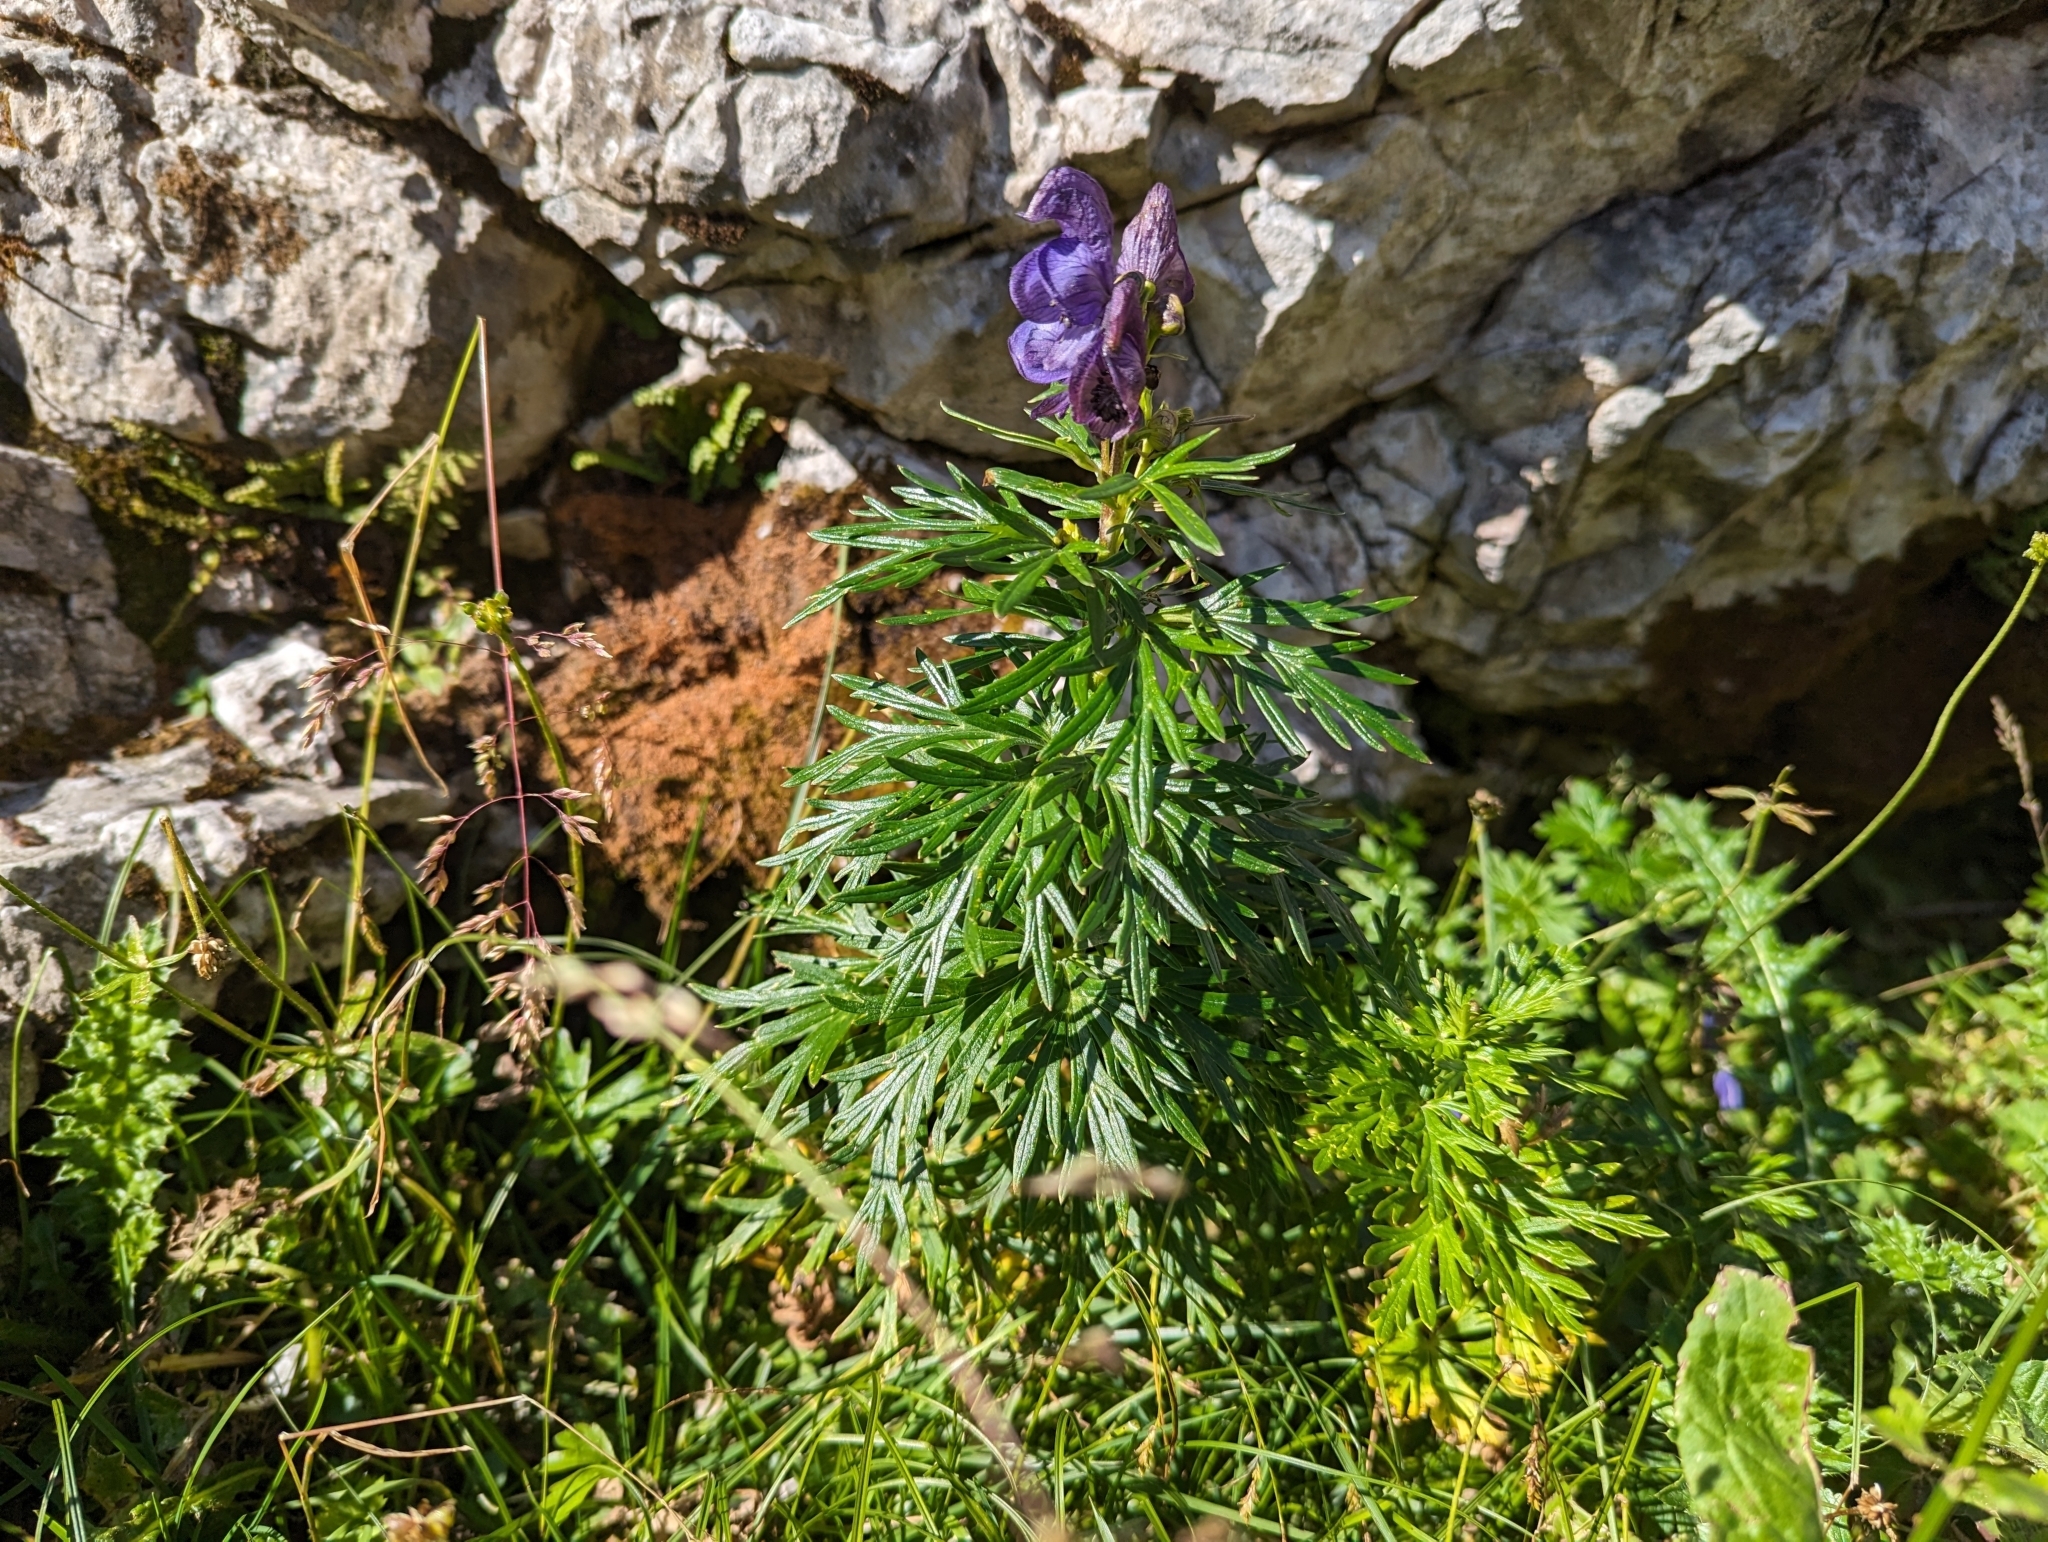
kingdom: Plantae
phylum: Tracheophyta
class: Magnoliopsida
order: Ranunculales
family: Ranunculaceae
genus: Aconitum
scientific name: Aconitum tauricum
